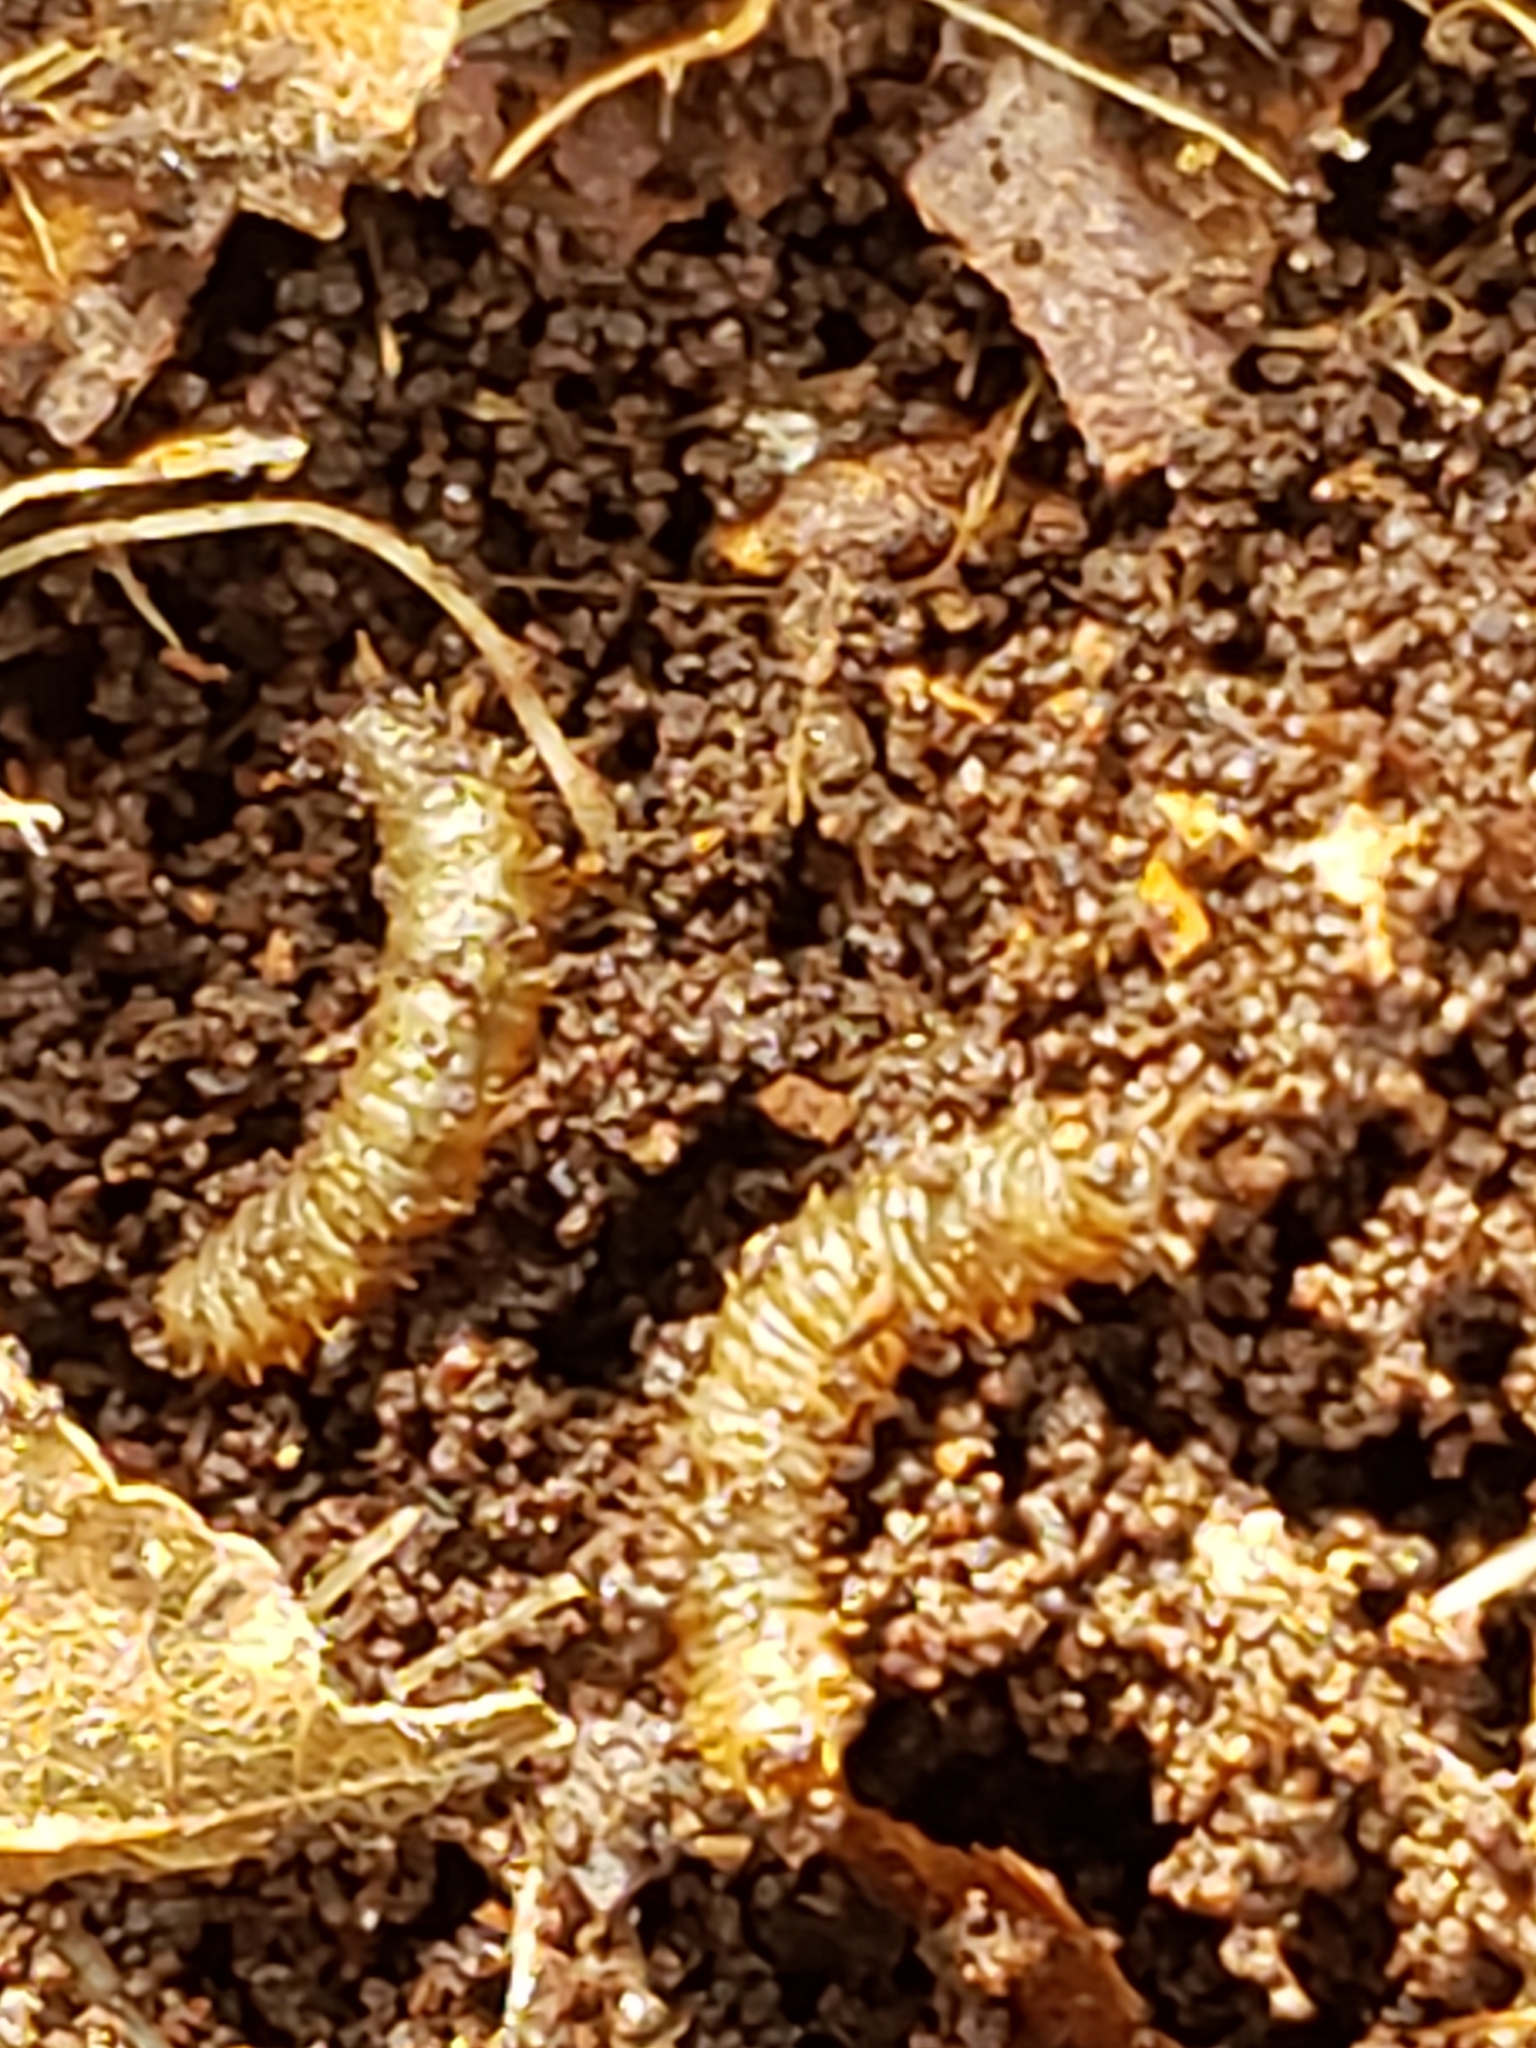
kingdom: Animalia
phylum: Arthropoda
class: Insecta
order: Diptera
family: Bibionidae
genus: Bibio
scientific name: Bibio
